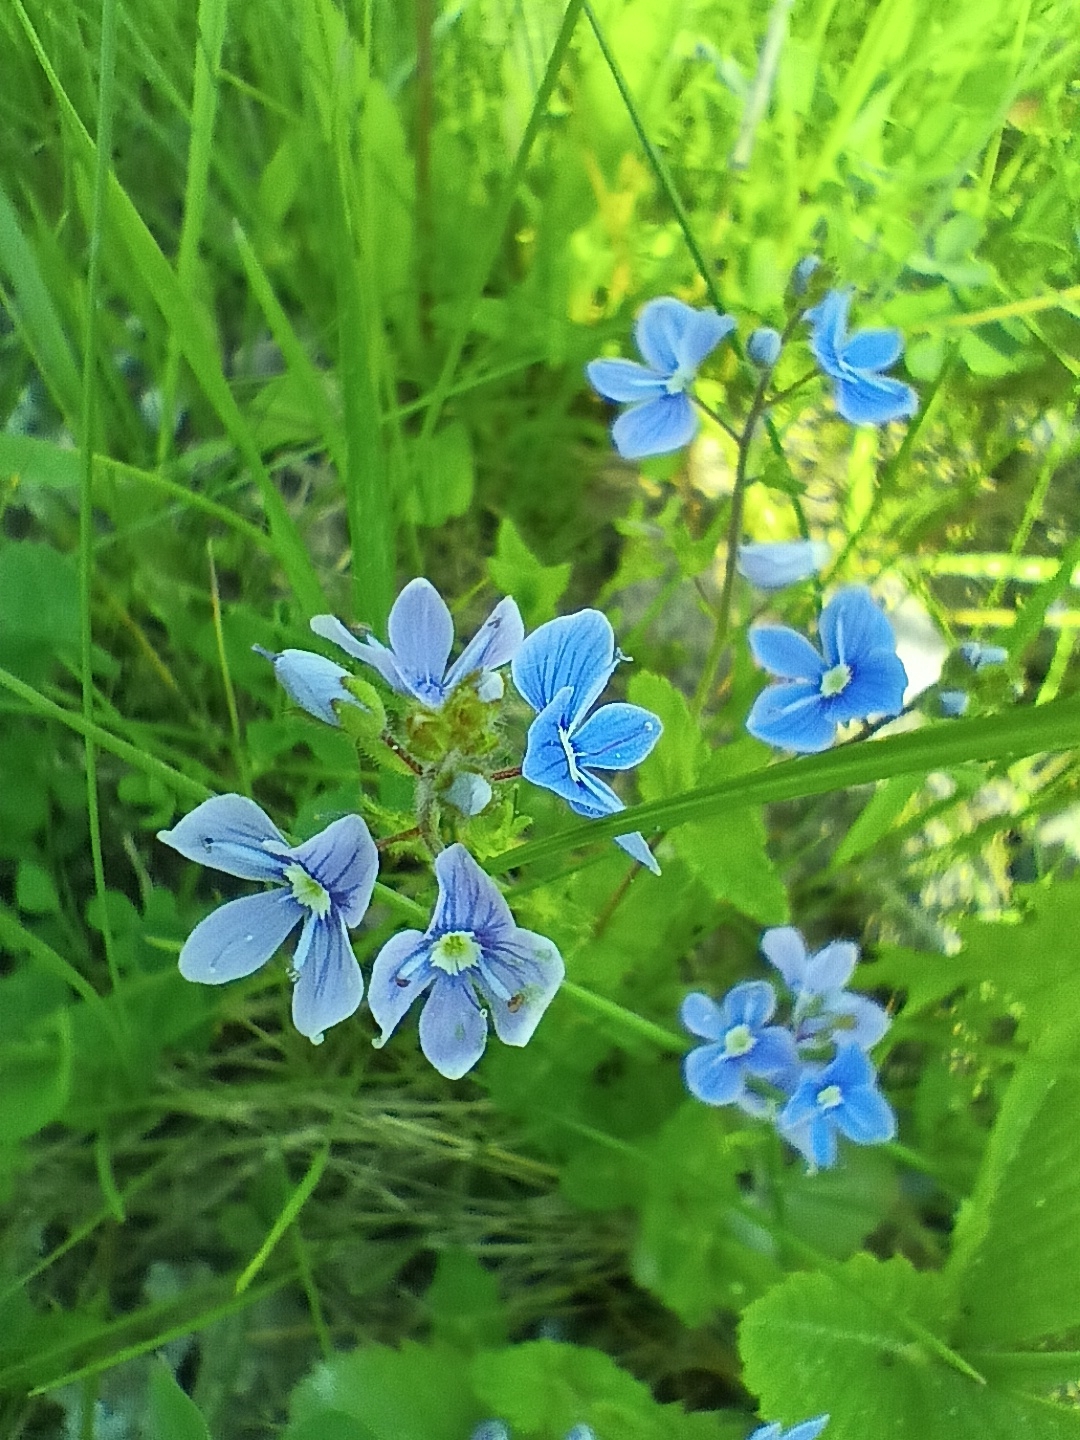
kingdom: Plantae
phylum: Tracheophyta
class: Magnoliopsida
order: Lamiales
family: Plantaginaceae
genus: Veronica
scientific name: Veronica chamaedrys
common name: Germander speedwell
